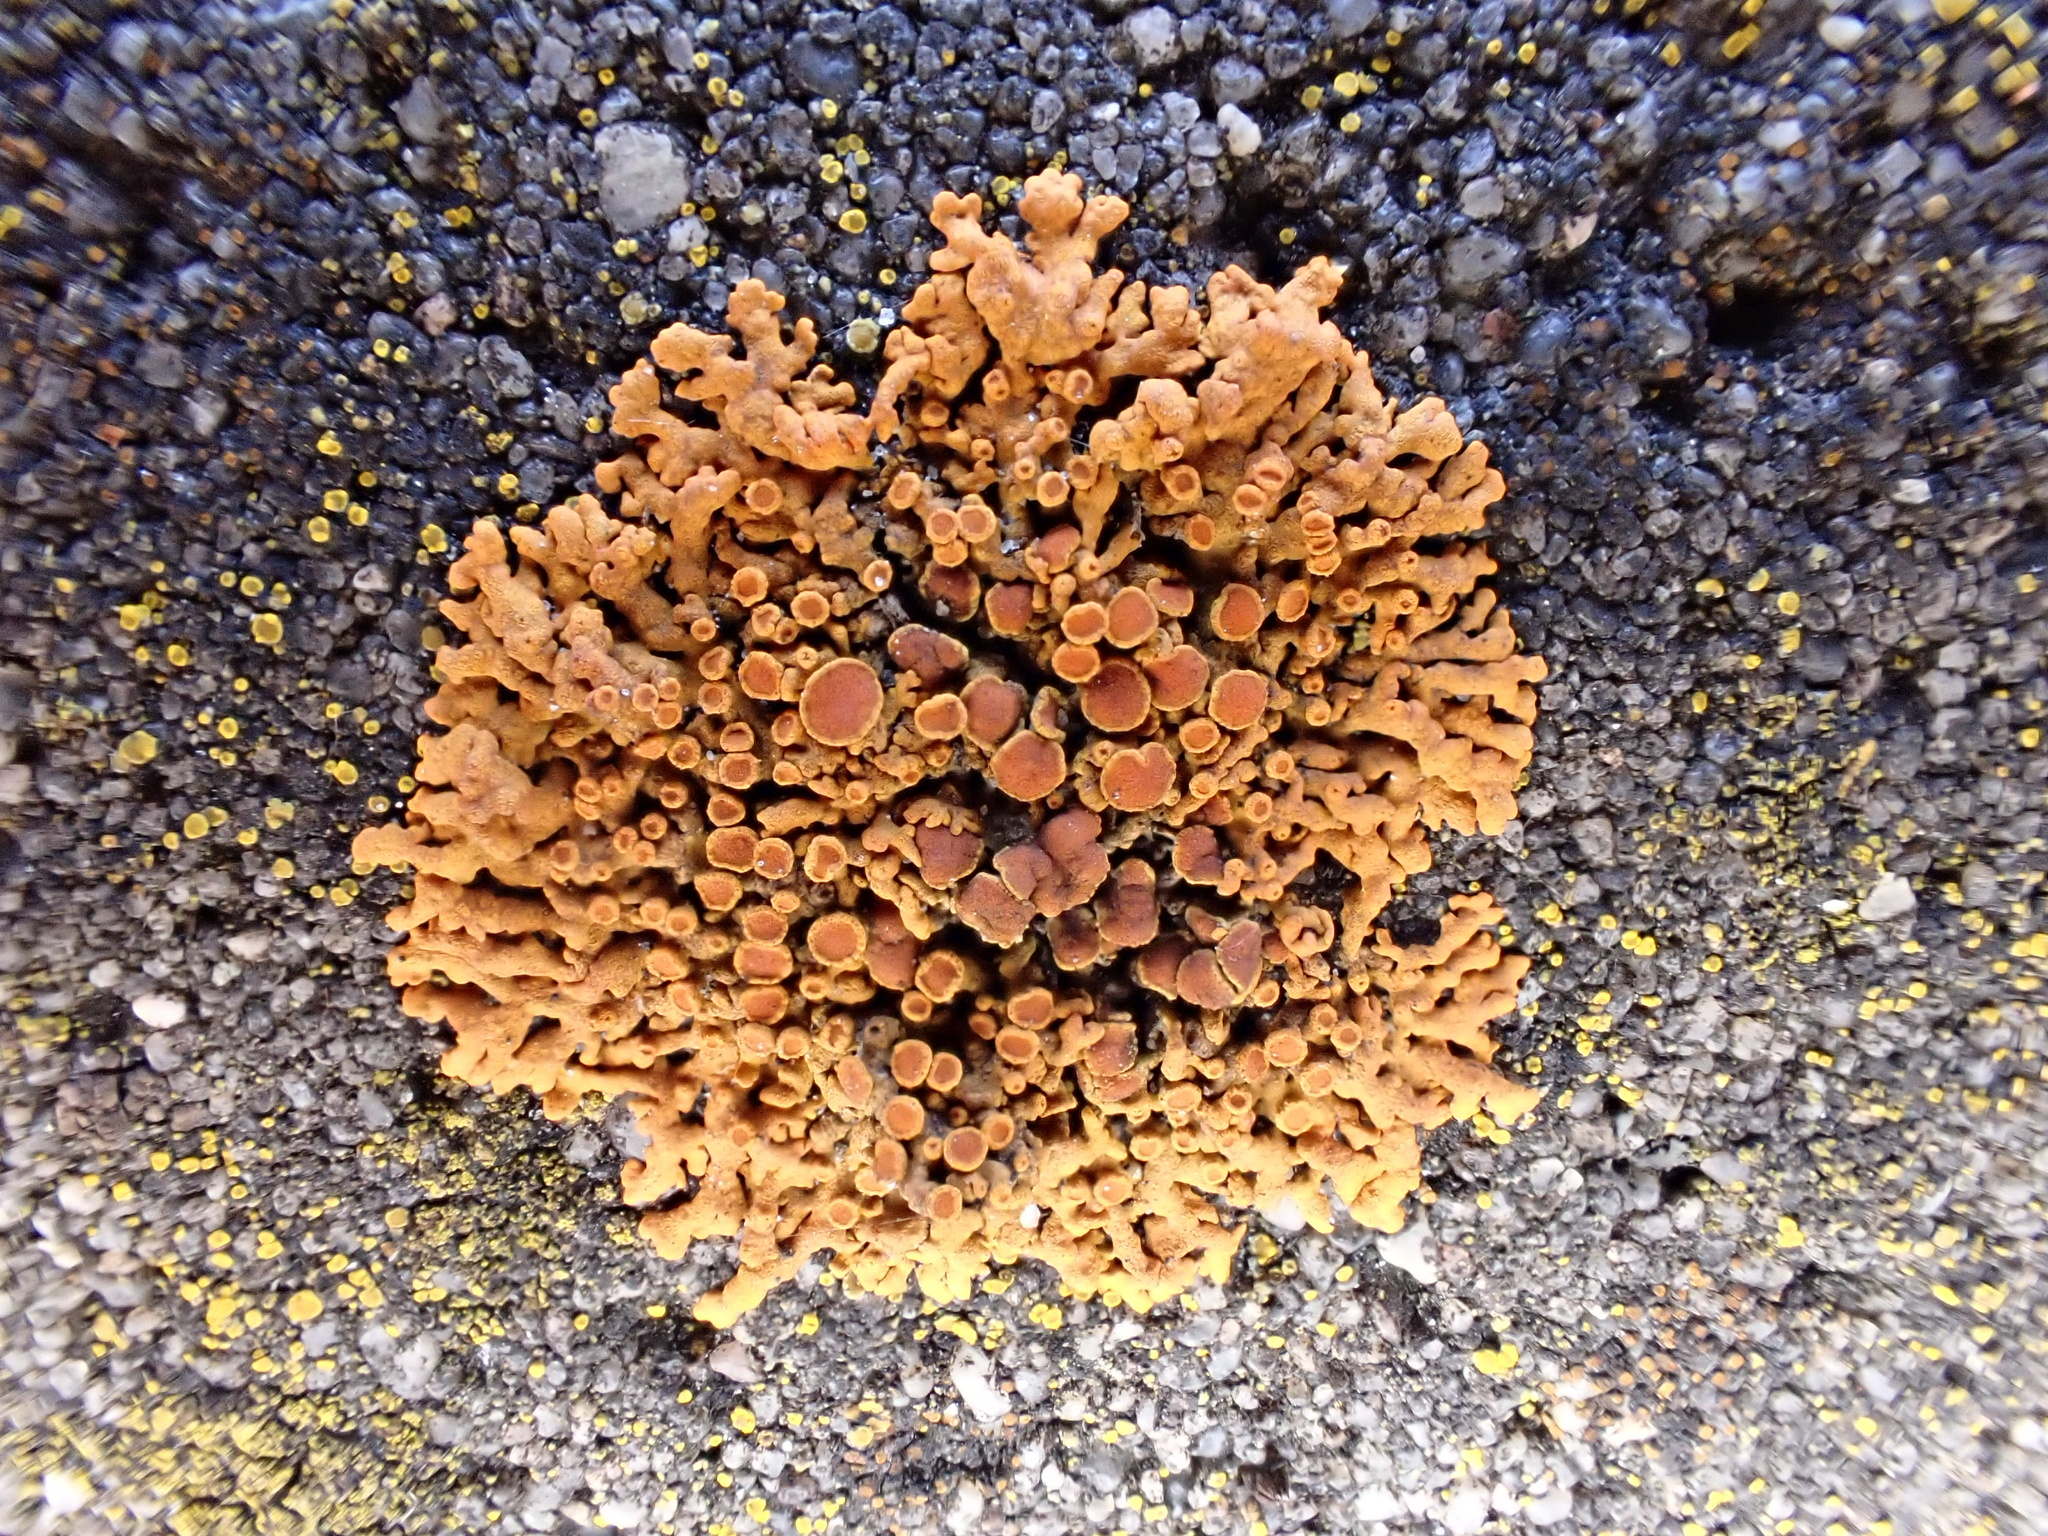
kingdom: Fungi
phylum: Ascomycota
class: Lecanoromycetes
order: Teloschistales
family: Teloschistaceae
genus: Xanthoria
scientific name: Xanthoria elegans
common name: Elegant sunburst lichen
